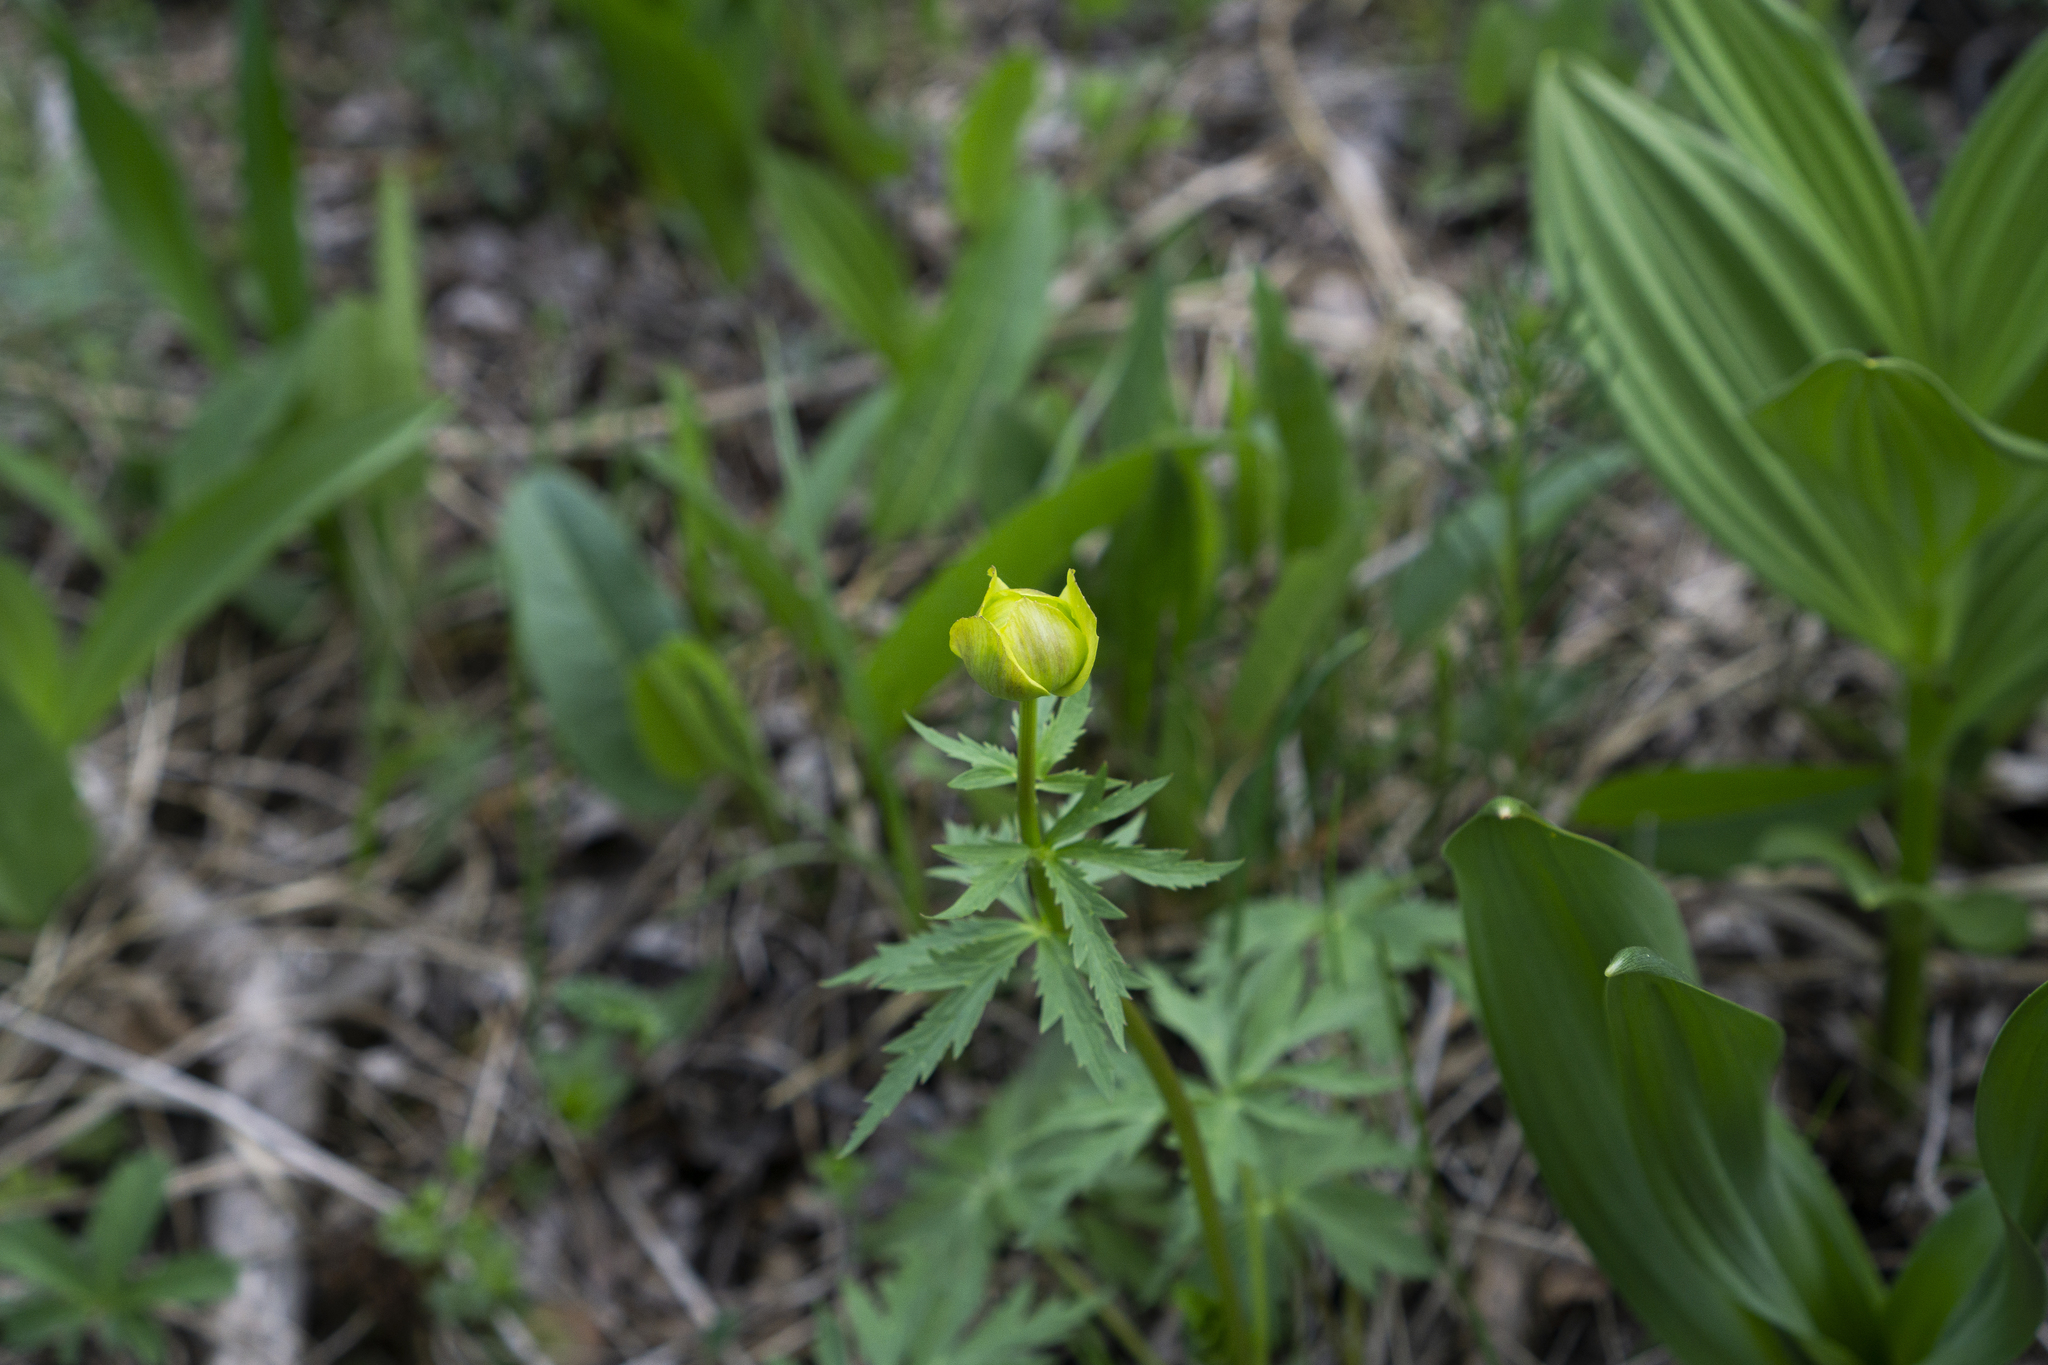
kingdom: Plantae
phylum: Tracheophyta
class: Magnoliopsida
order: Ranunculales
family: Ranunculaceae
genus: Trollius
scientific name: Trollius europaeus
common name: European globeflower
